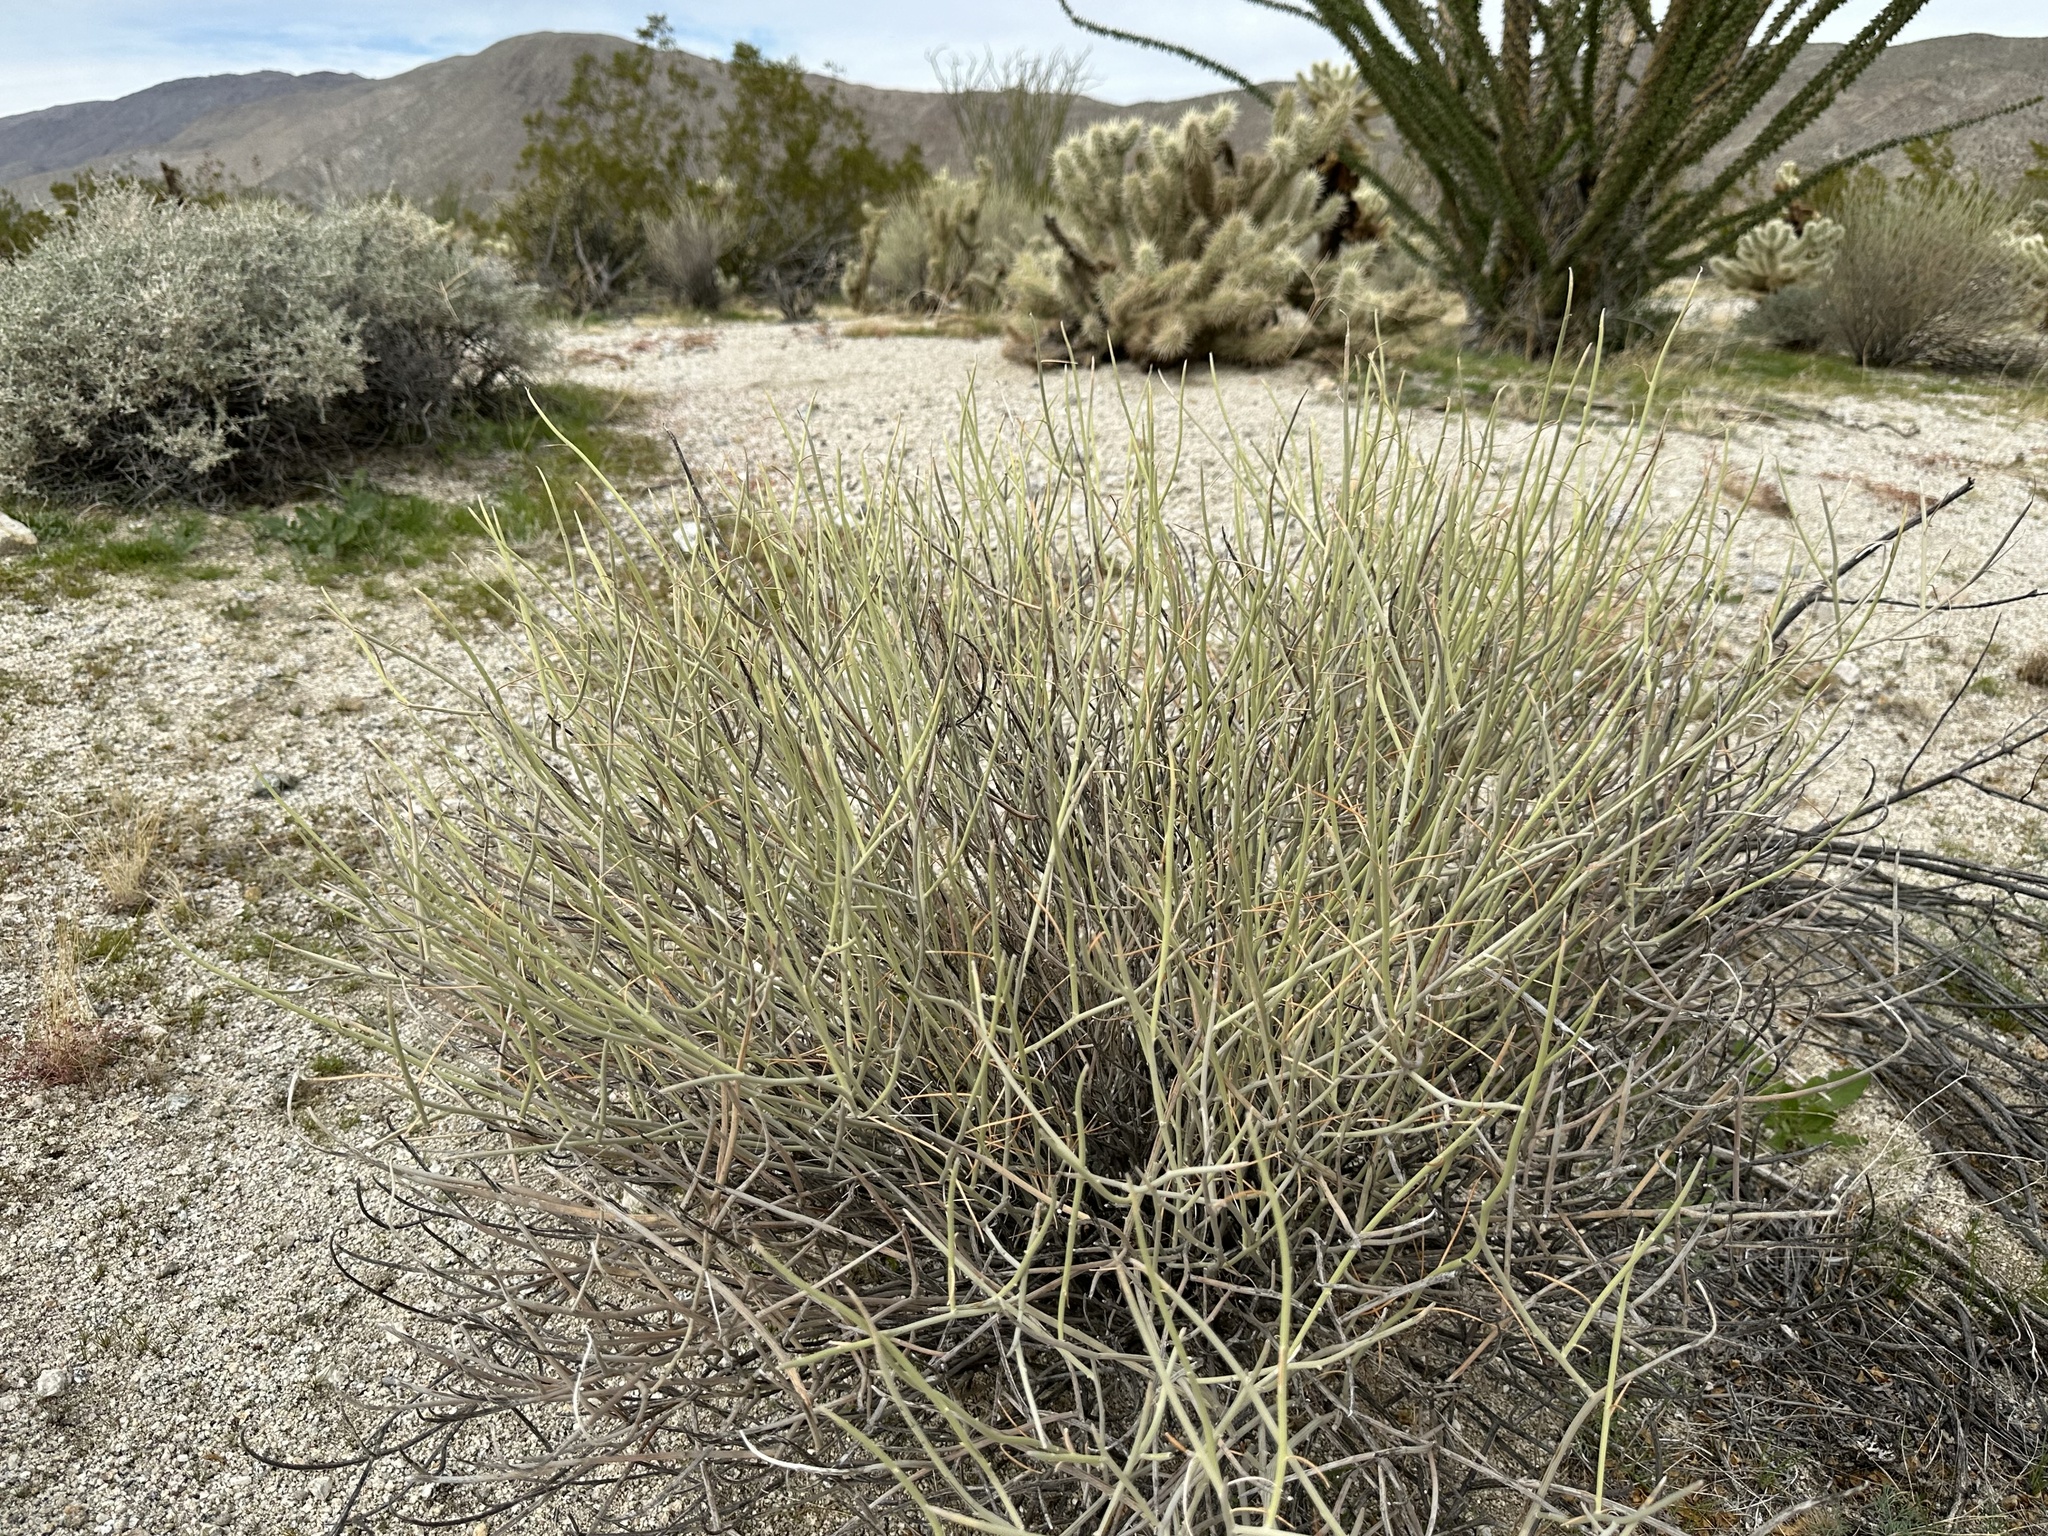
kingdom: Plantae
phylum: Tracheophyta
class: Magnoliopsida
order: Fabales
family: Fabaceae
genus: Senna
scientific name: Senna armata
